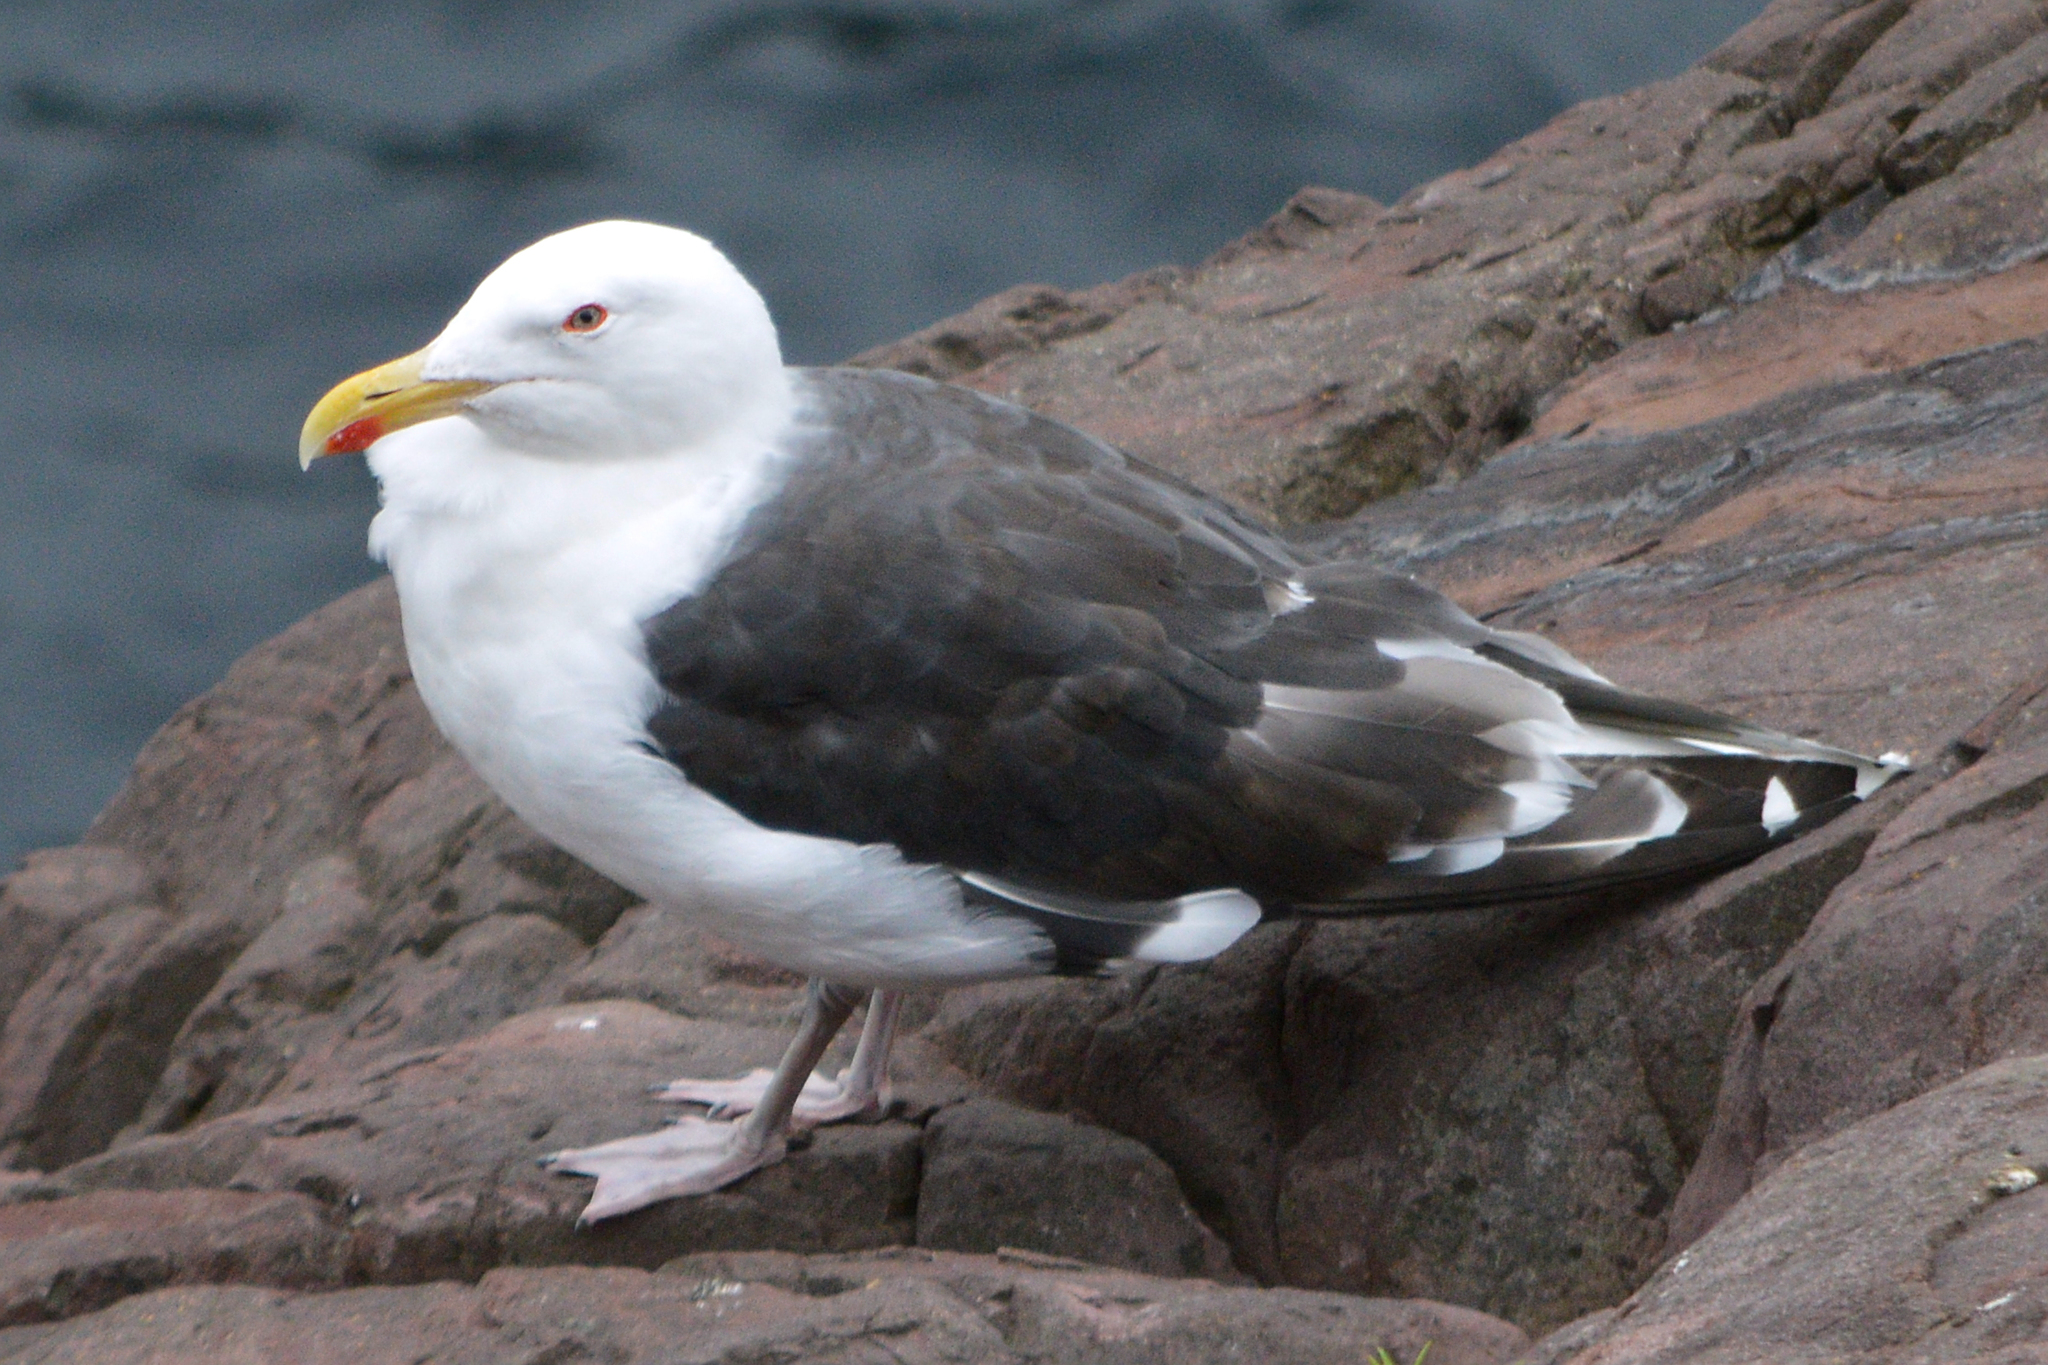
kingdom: Animalia
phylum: Chordata
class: Aves
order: Charadriiformes
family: Laridae
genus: Larus
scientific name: Larus marinus
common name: Great black-backed gull
